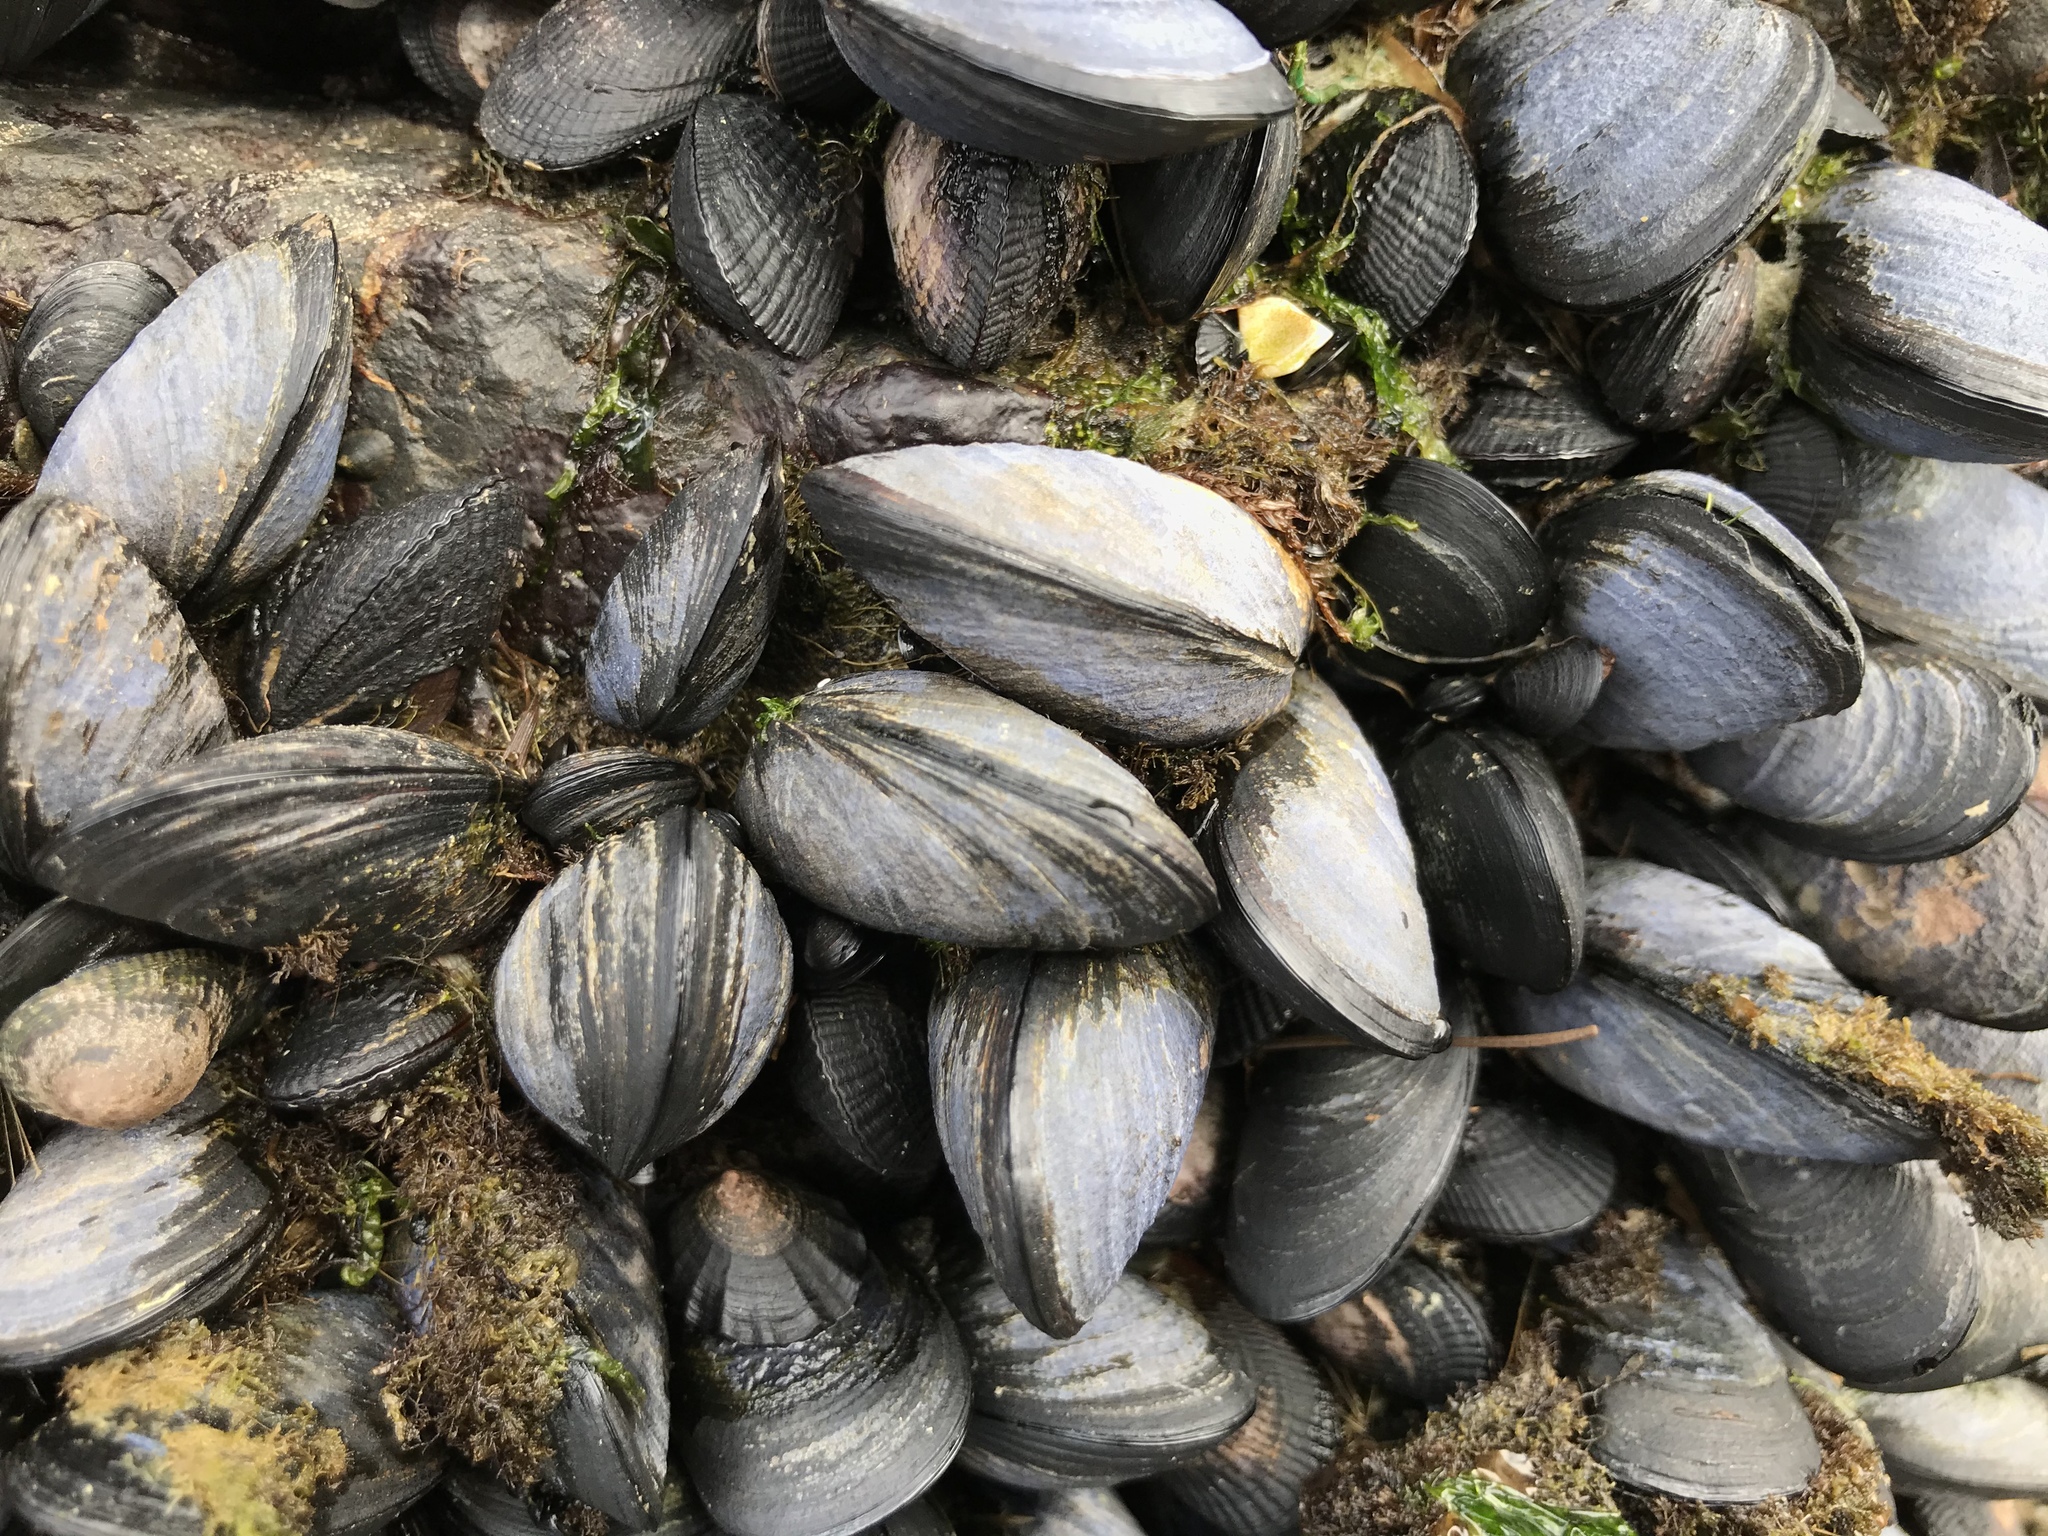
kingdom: Animalia
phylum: Mollusca
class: Bivalvia
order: Mytilida
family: Mytilidae
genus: Mytilus
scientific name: Mytilus chilensis
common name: Chilean mussel
